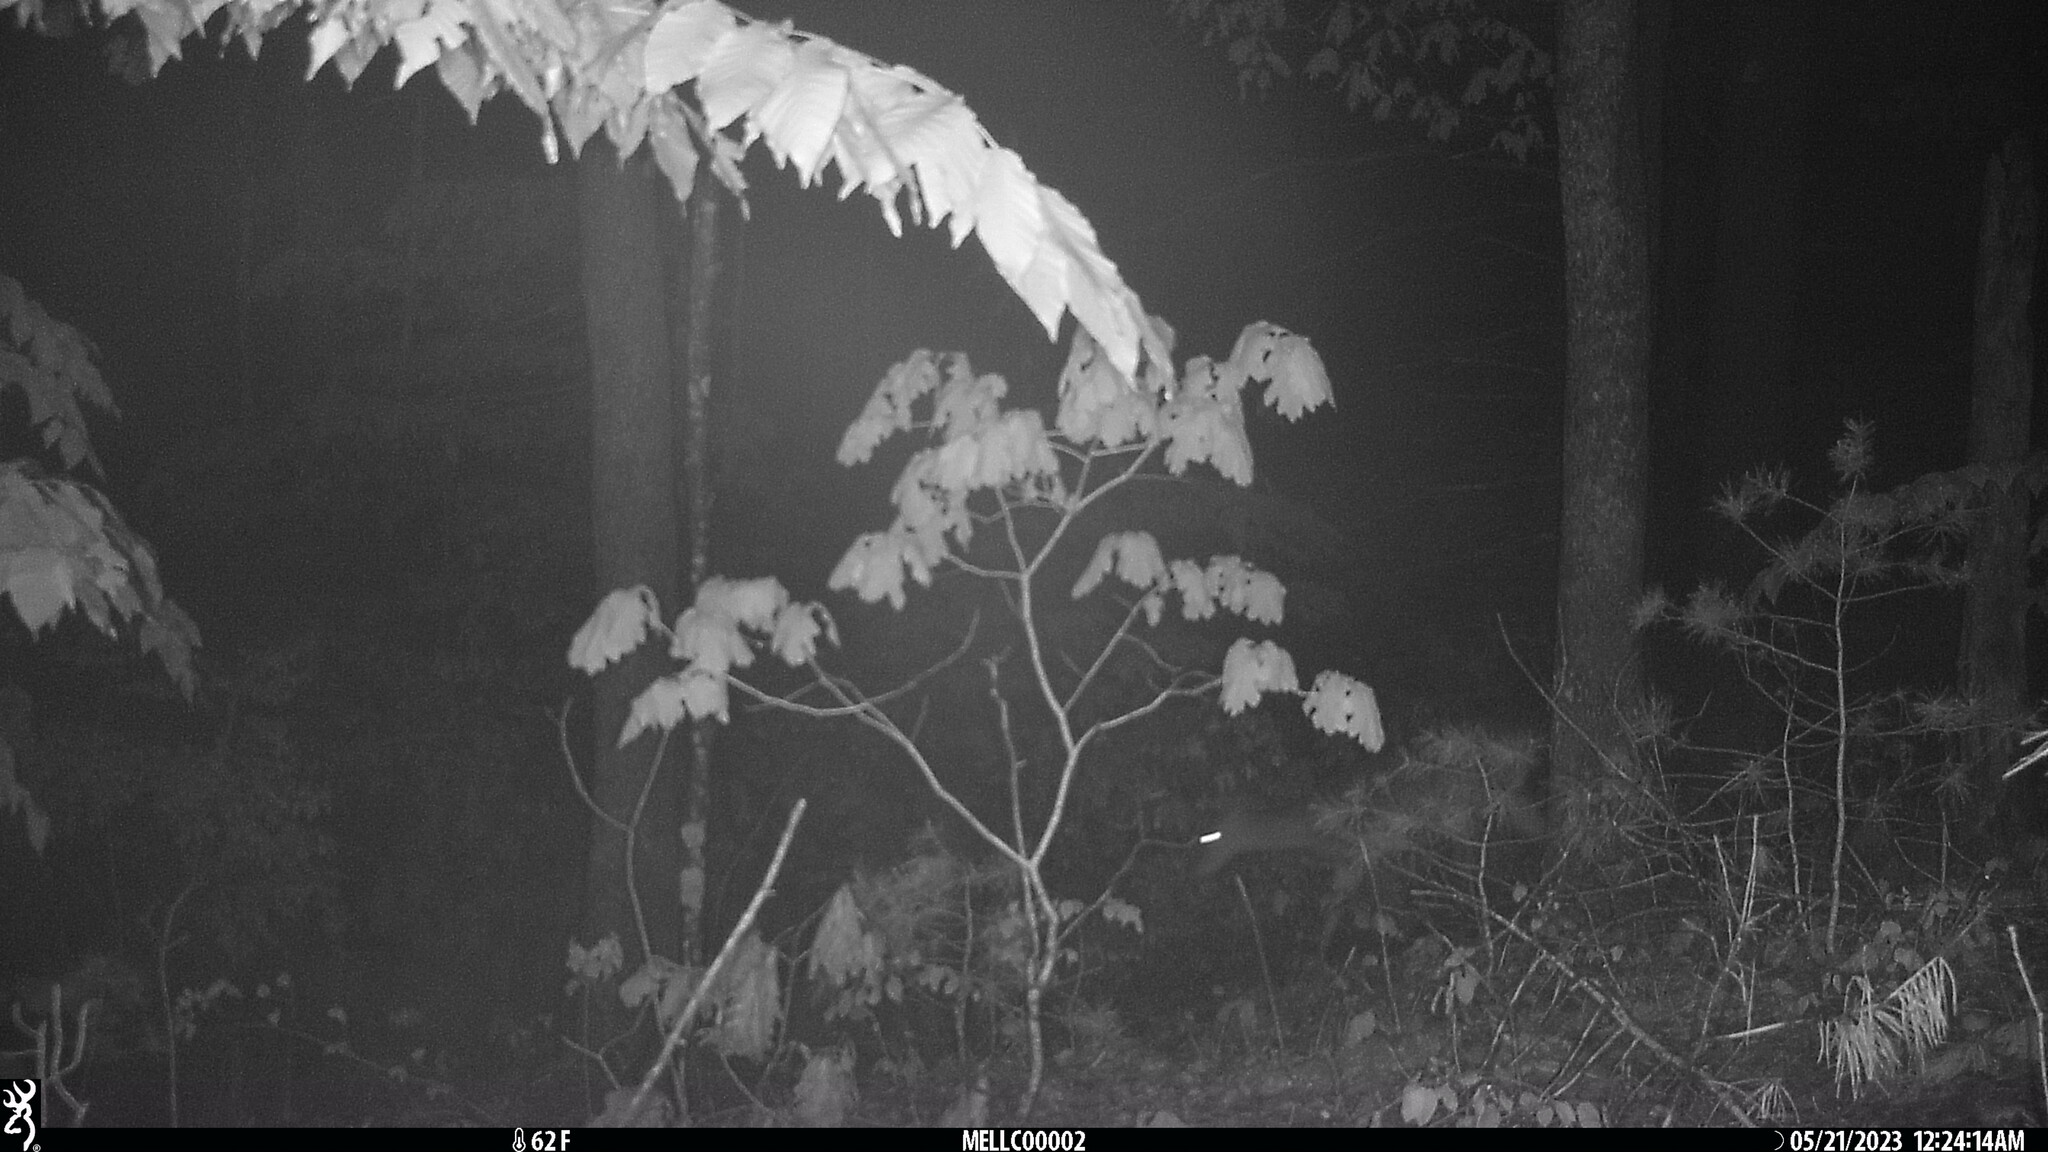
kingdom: Animalia
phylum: Chordata
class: Mammalia
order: Artiodactyla
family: Cervidae
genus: Odocoileus
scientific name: Odocoileus virginianus
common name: White-tailed deer
